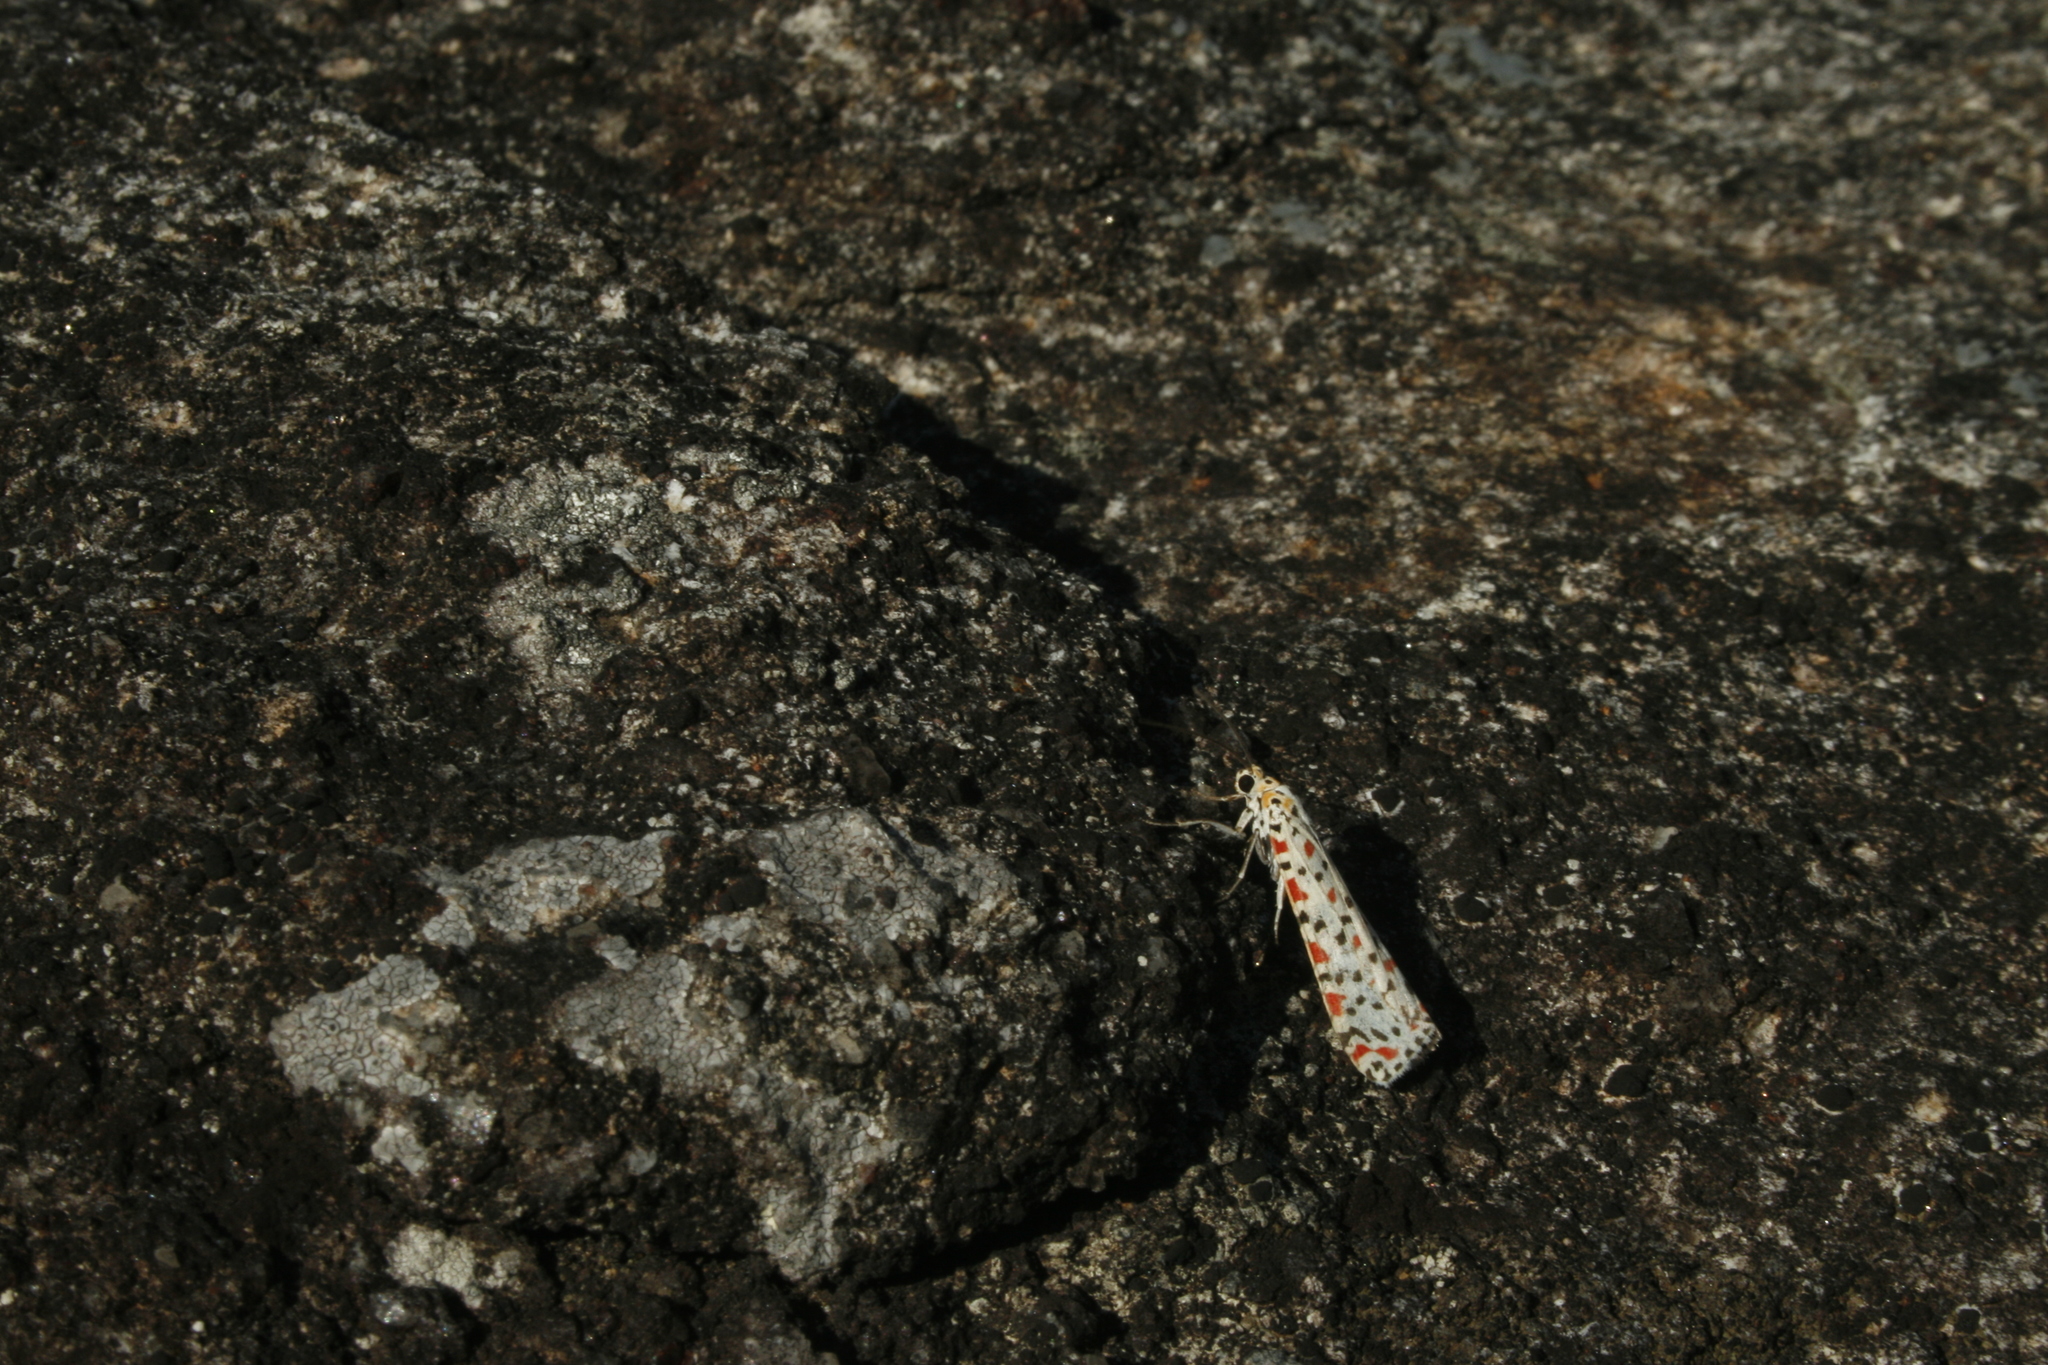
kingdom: Animalia
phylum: Arthropoda
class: Insecta
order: Lepidoptera
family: Erebidae
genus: Utetheisa
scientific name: Utetheisa lotrix
